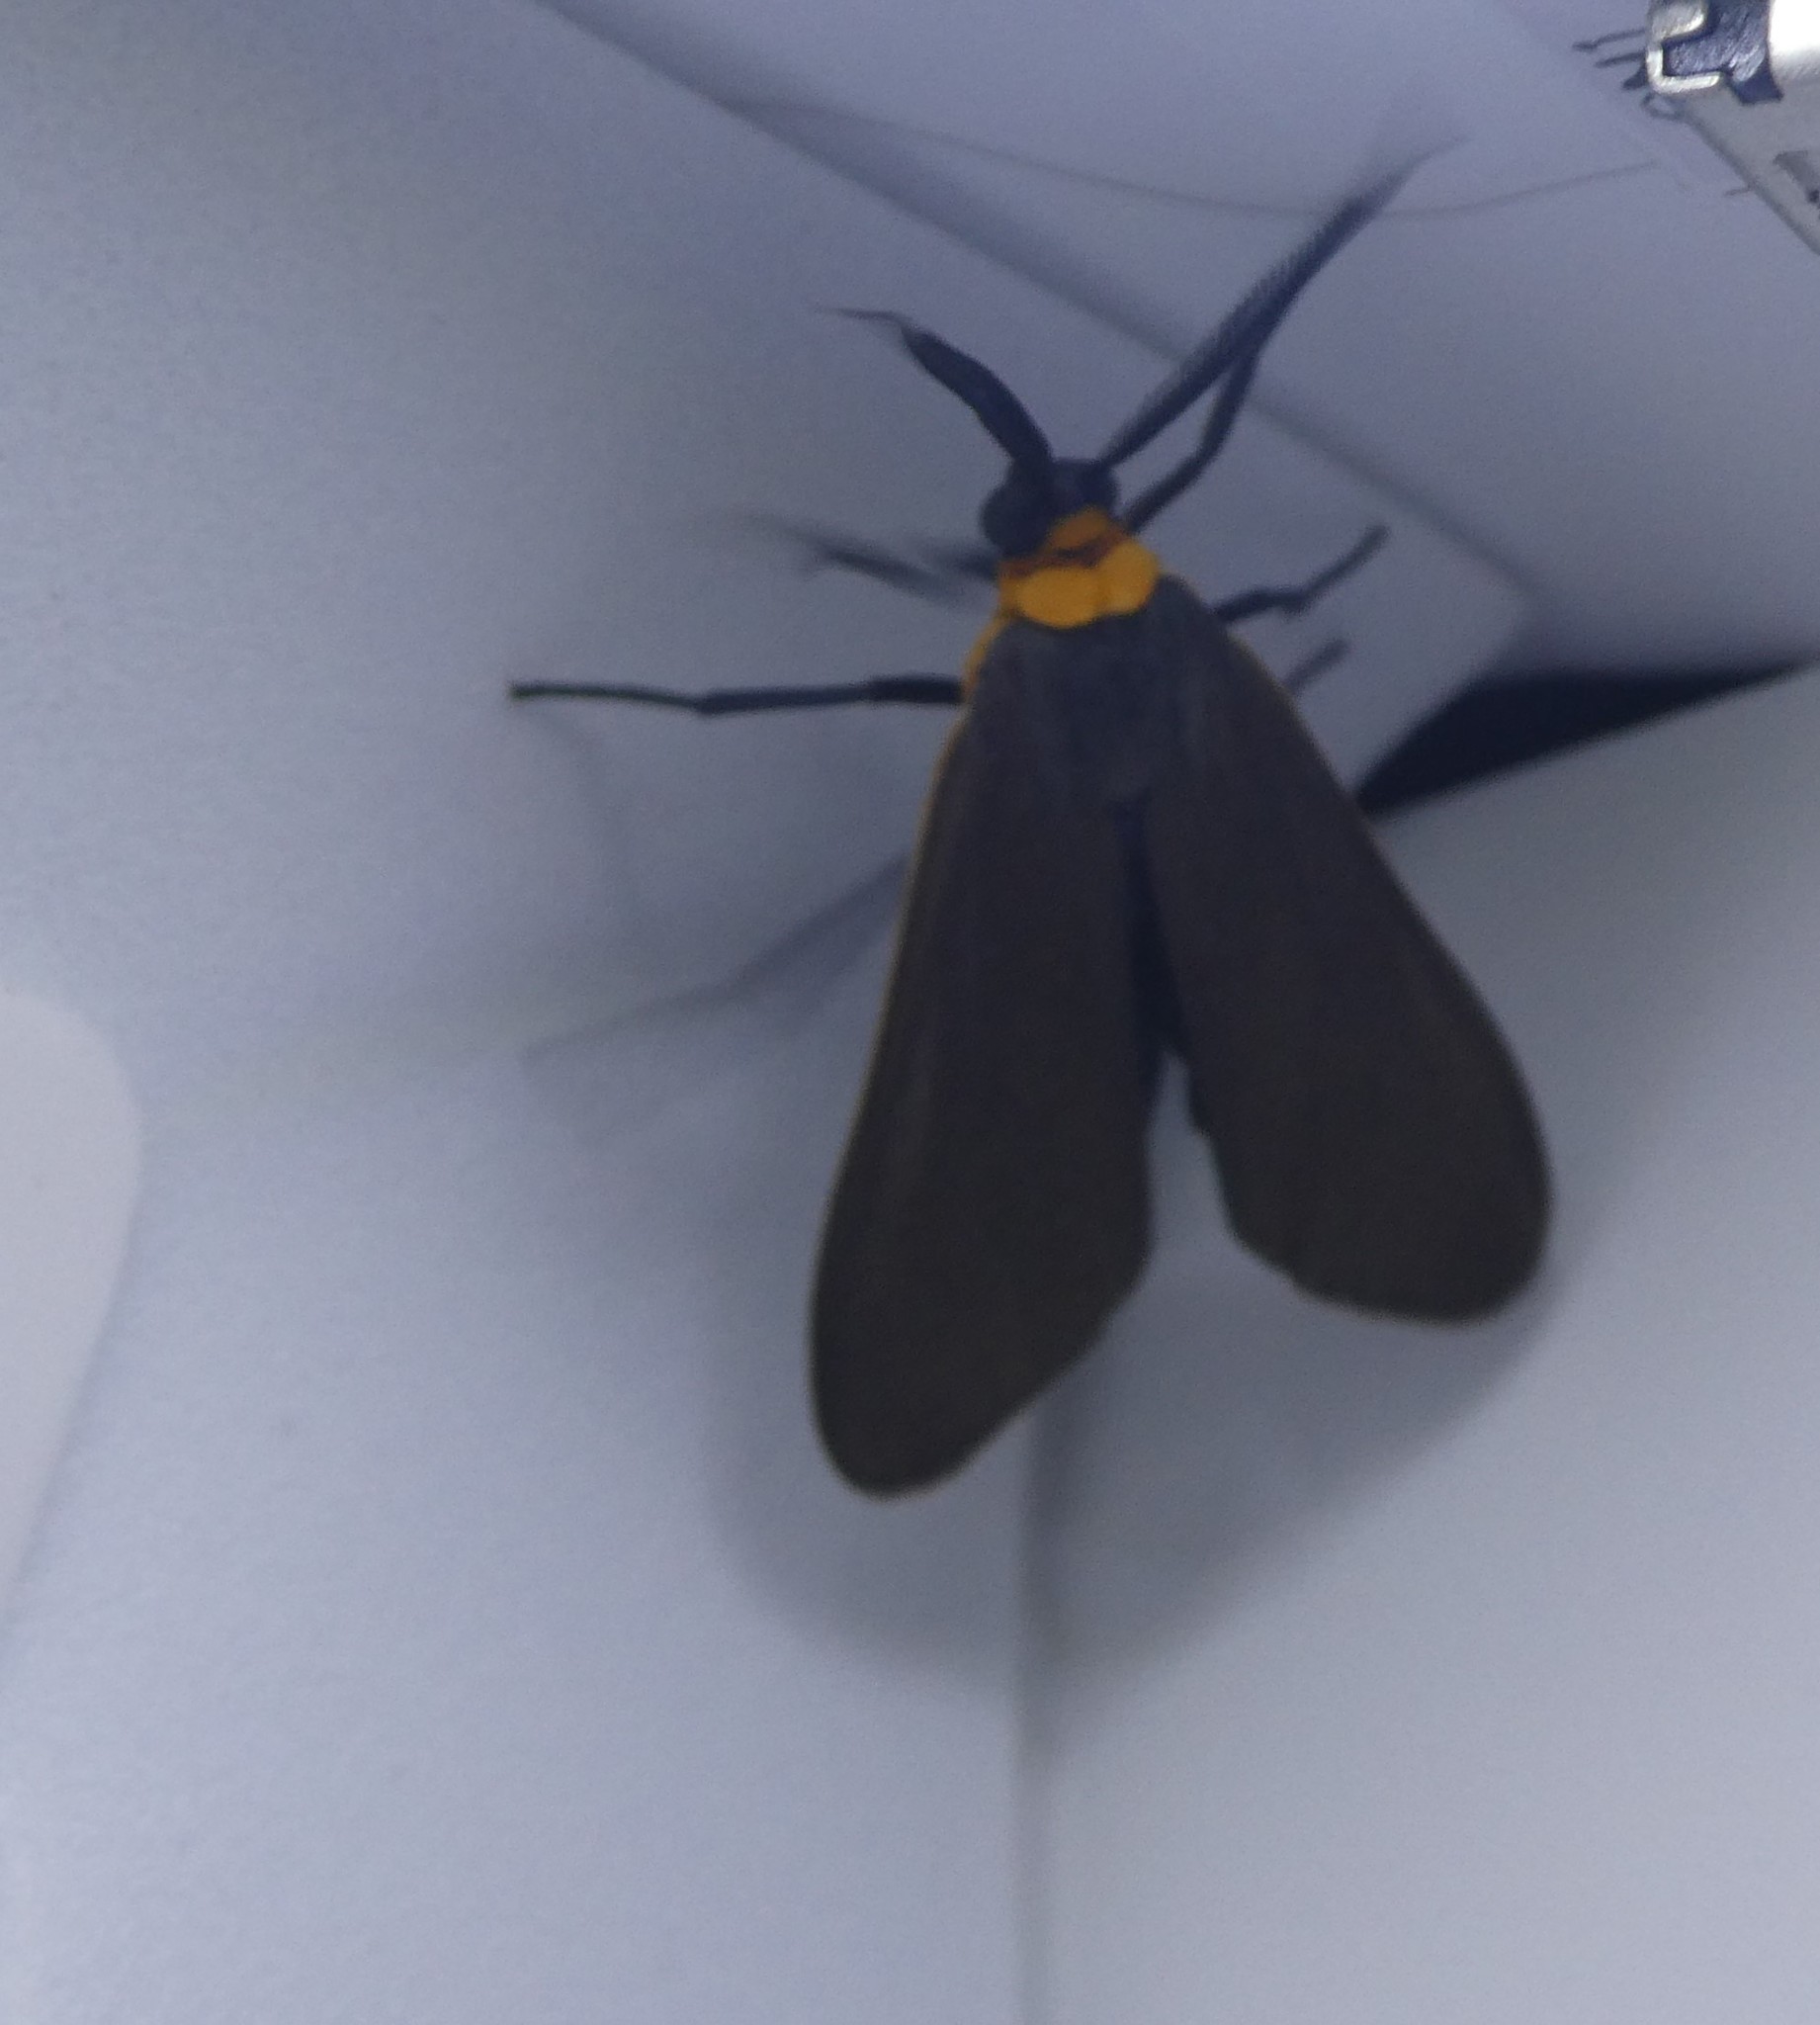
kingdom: Animalia
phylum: Arthropoda
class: Insecta
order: Lepidoptera
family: Erebidae
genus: Cisseps
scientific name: Cisseps fulvicollis
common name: Yellow-collared scape moth
